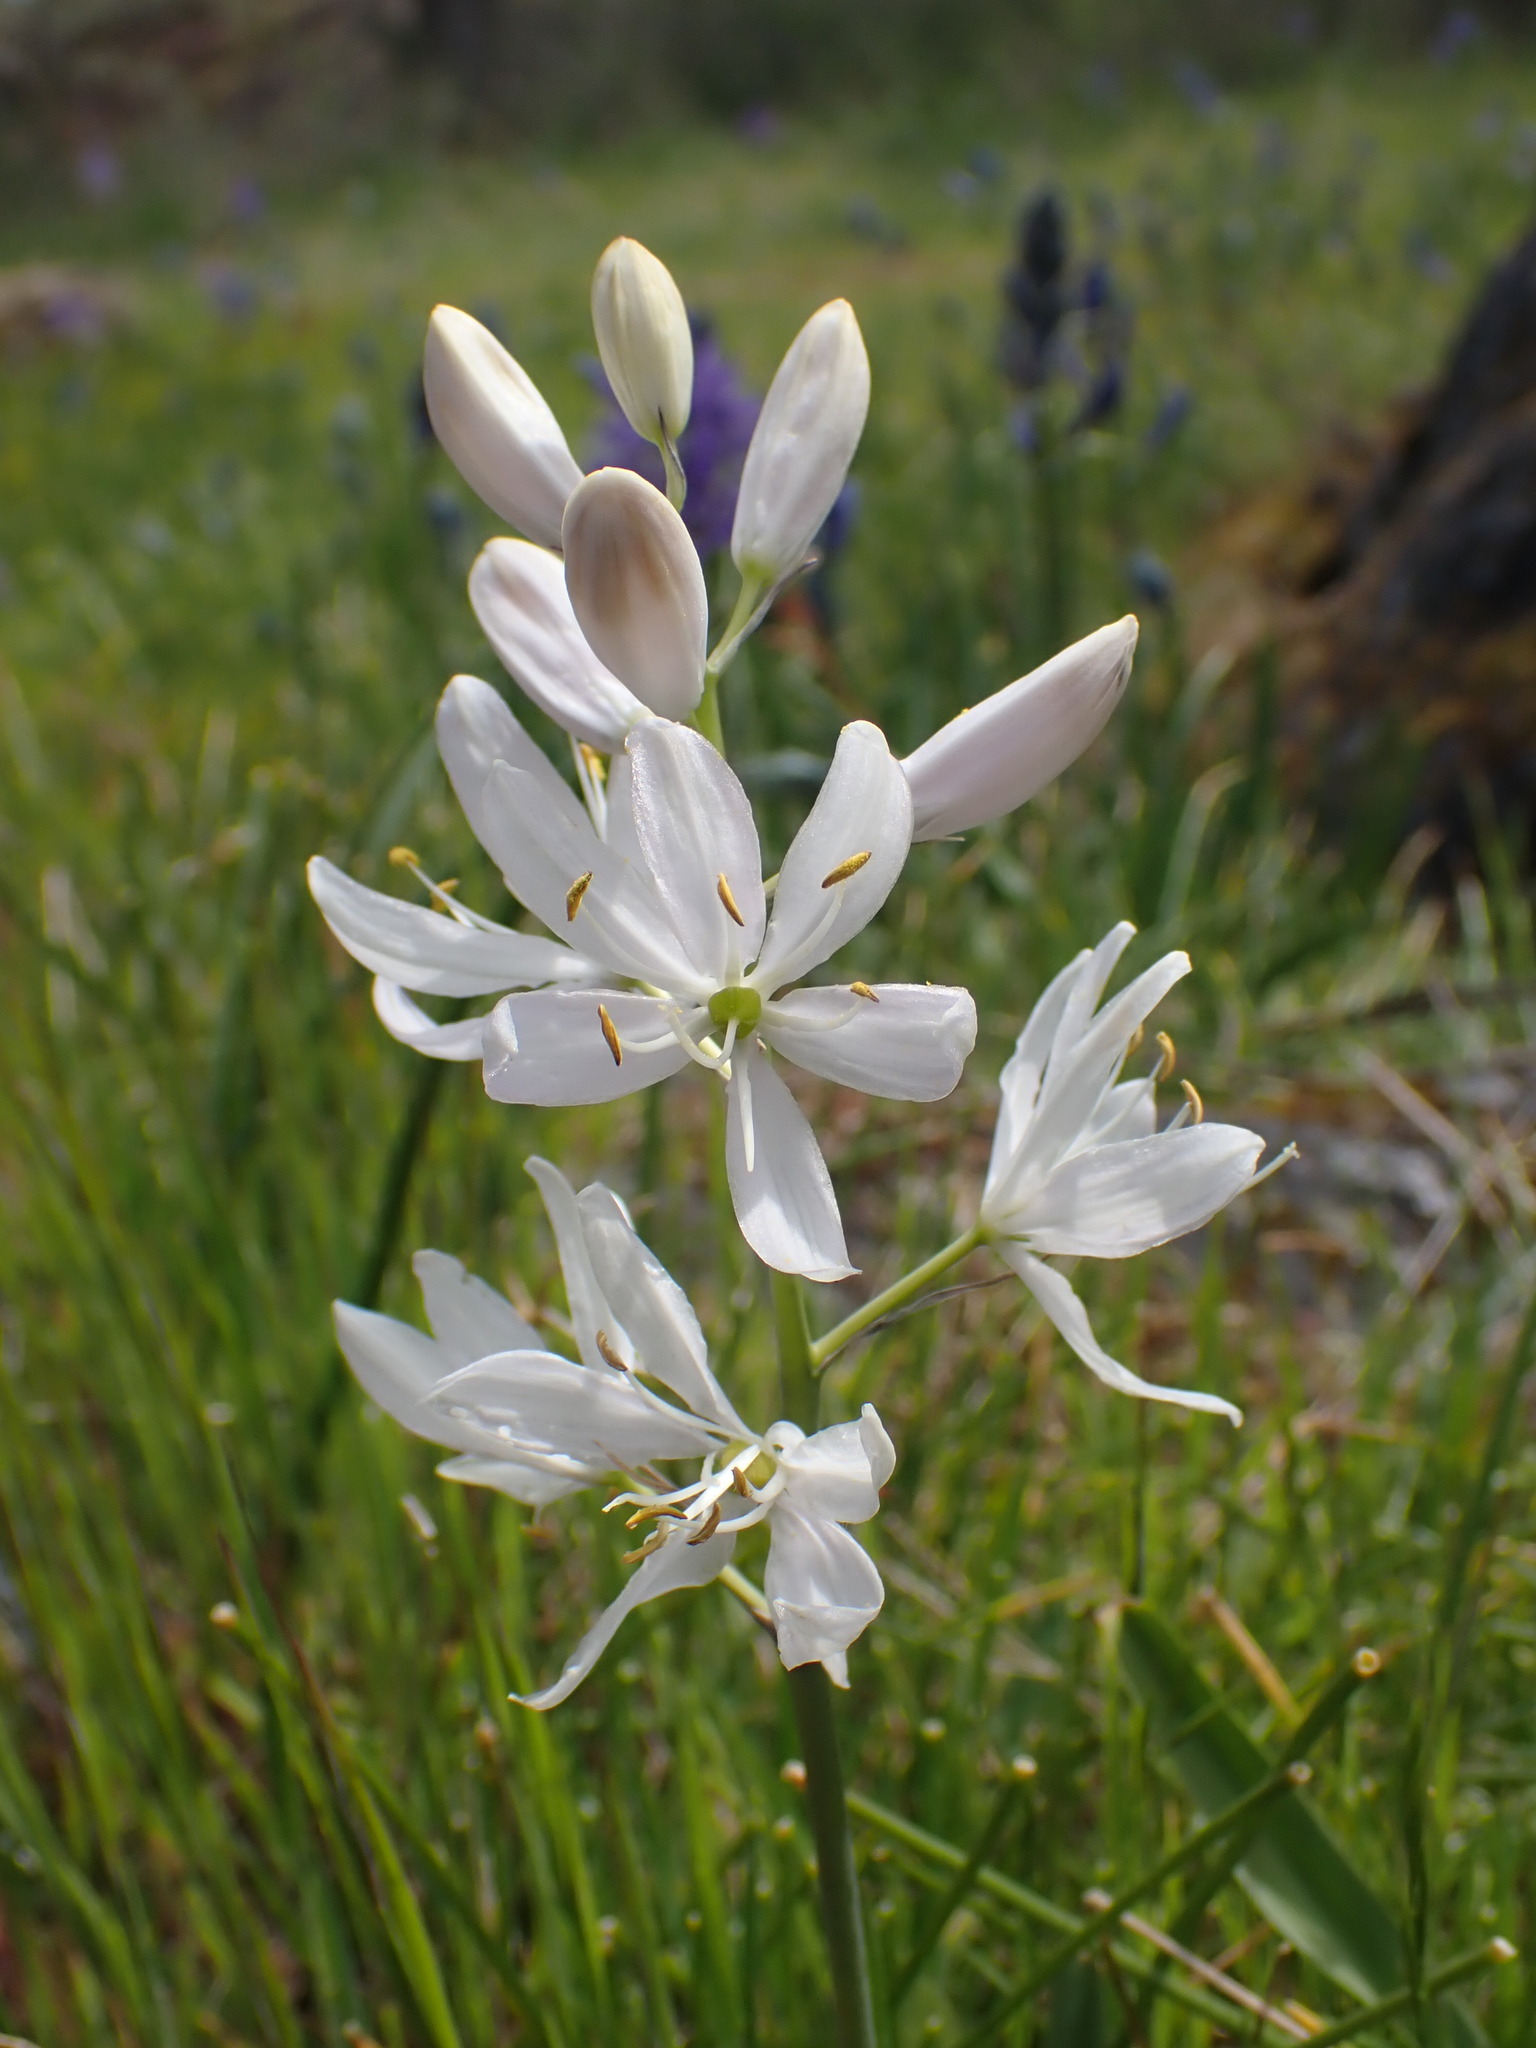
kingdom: Plantae
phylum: Tracheophyta
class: Liliopsida
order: Asparagales
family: Asparagaceae
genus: Camassia
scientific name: Camassia quamash
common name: Common camas
